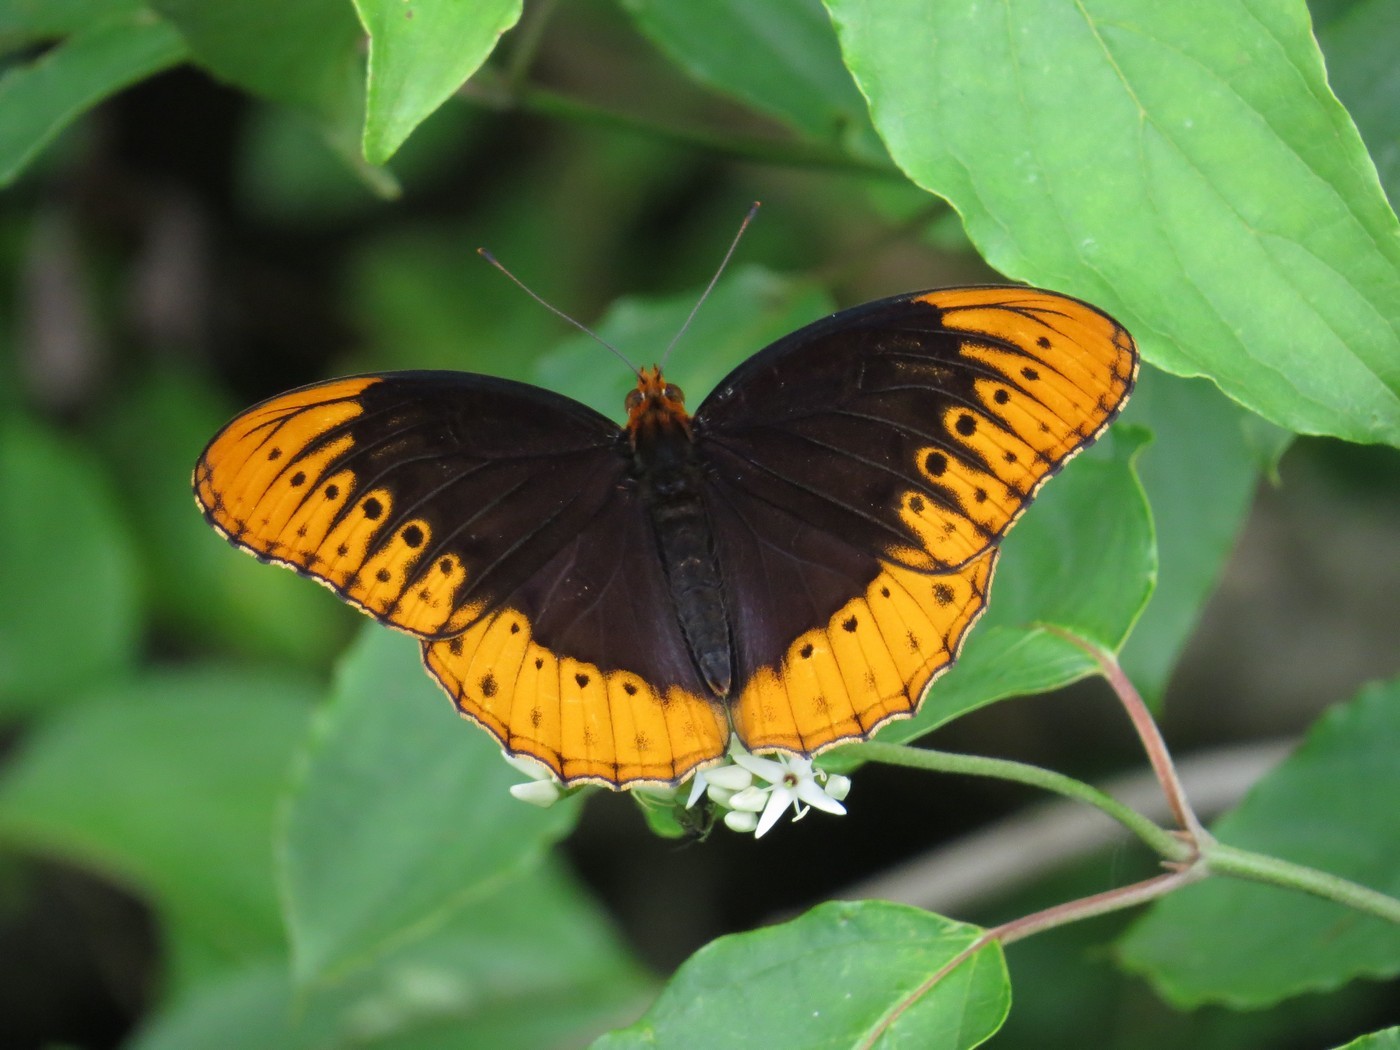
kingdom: Animalia
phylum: Arthropoda
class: Insecta
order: Lepidoptera
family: Nymphalidae
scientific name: Nymphalidae
